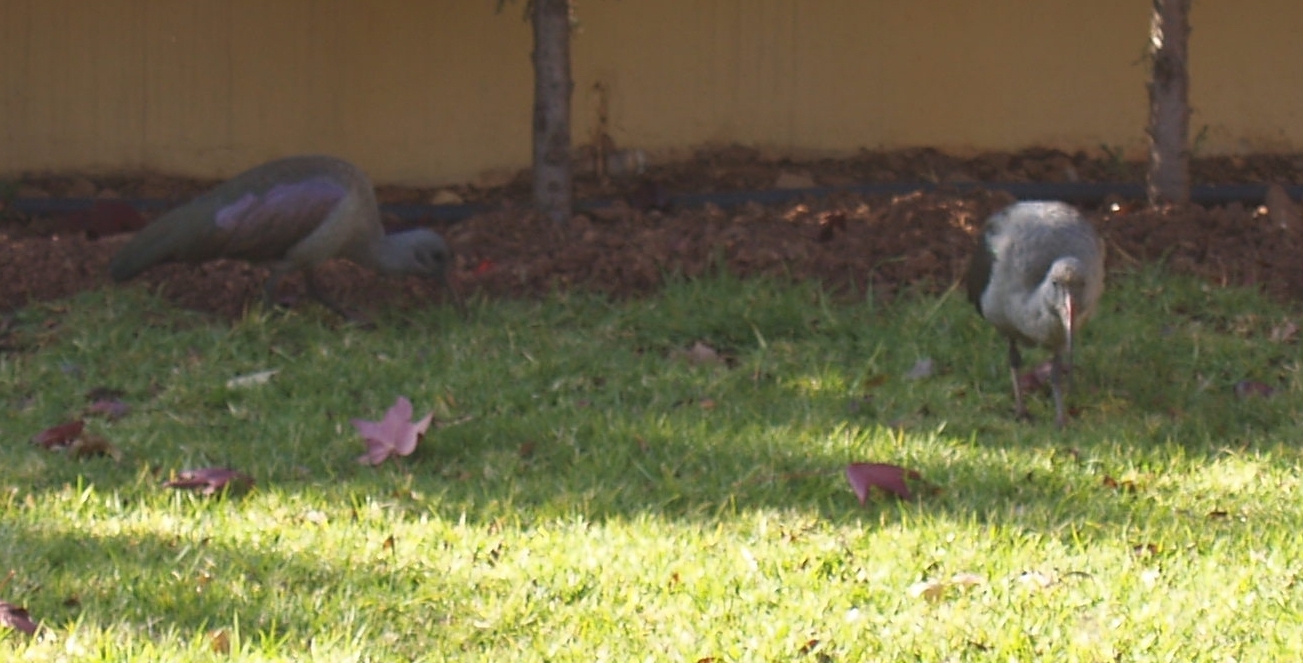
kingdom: Animalia
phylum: Chordata
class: Aves
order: Pelecaniformes
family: Threskiornithidae
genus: Bostrychia
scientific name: Bostrychia hagedash
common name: Hadada ibis
